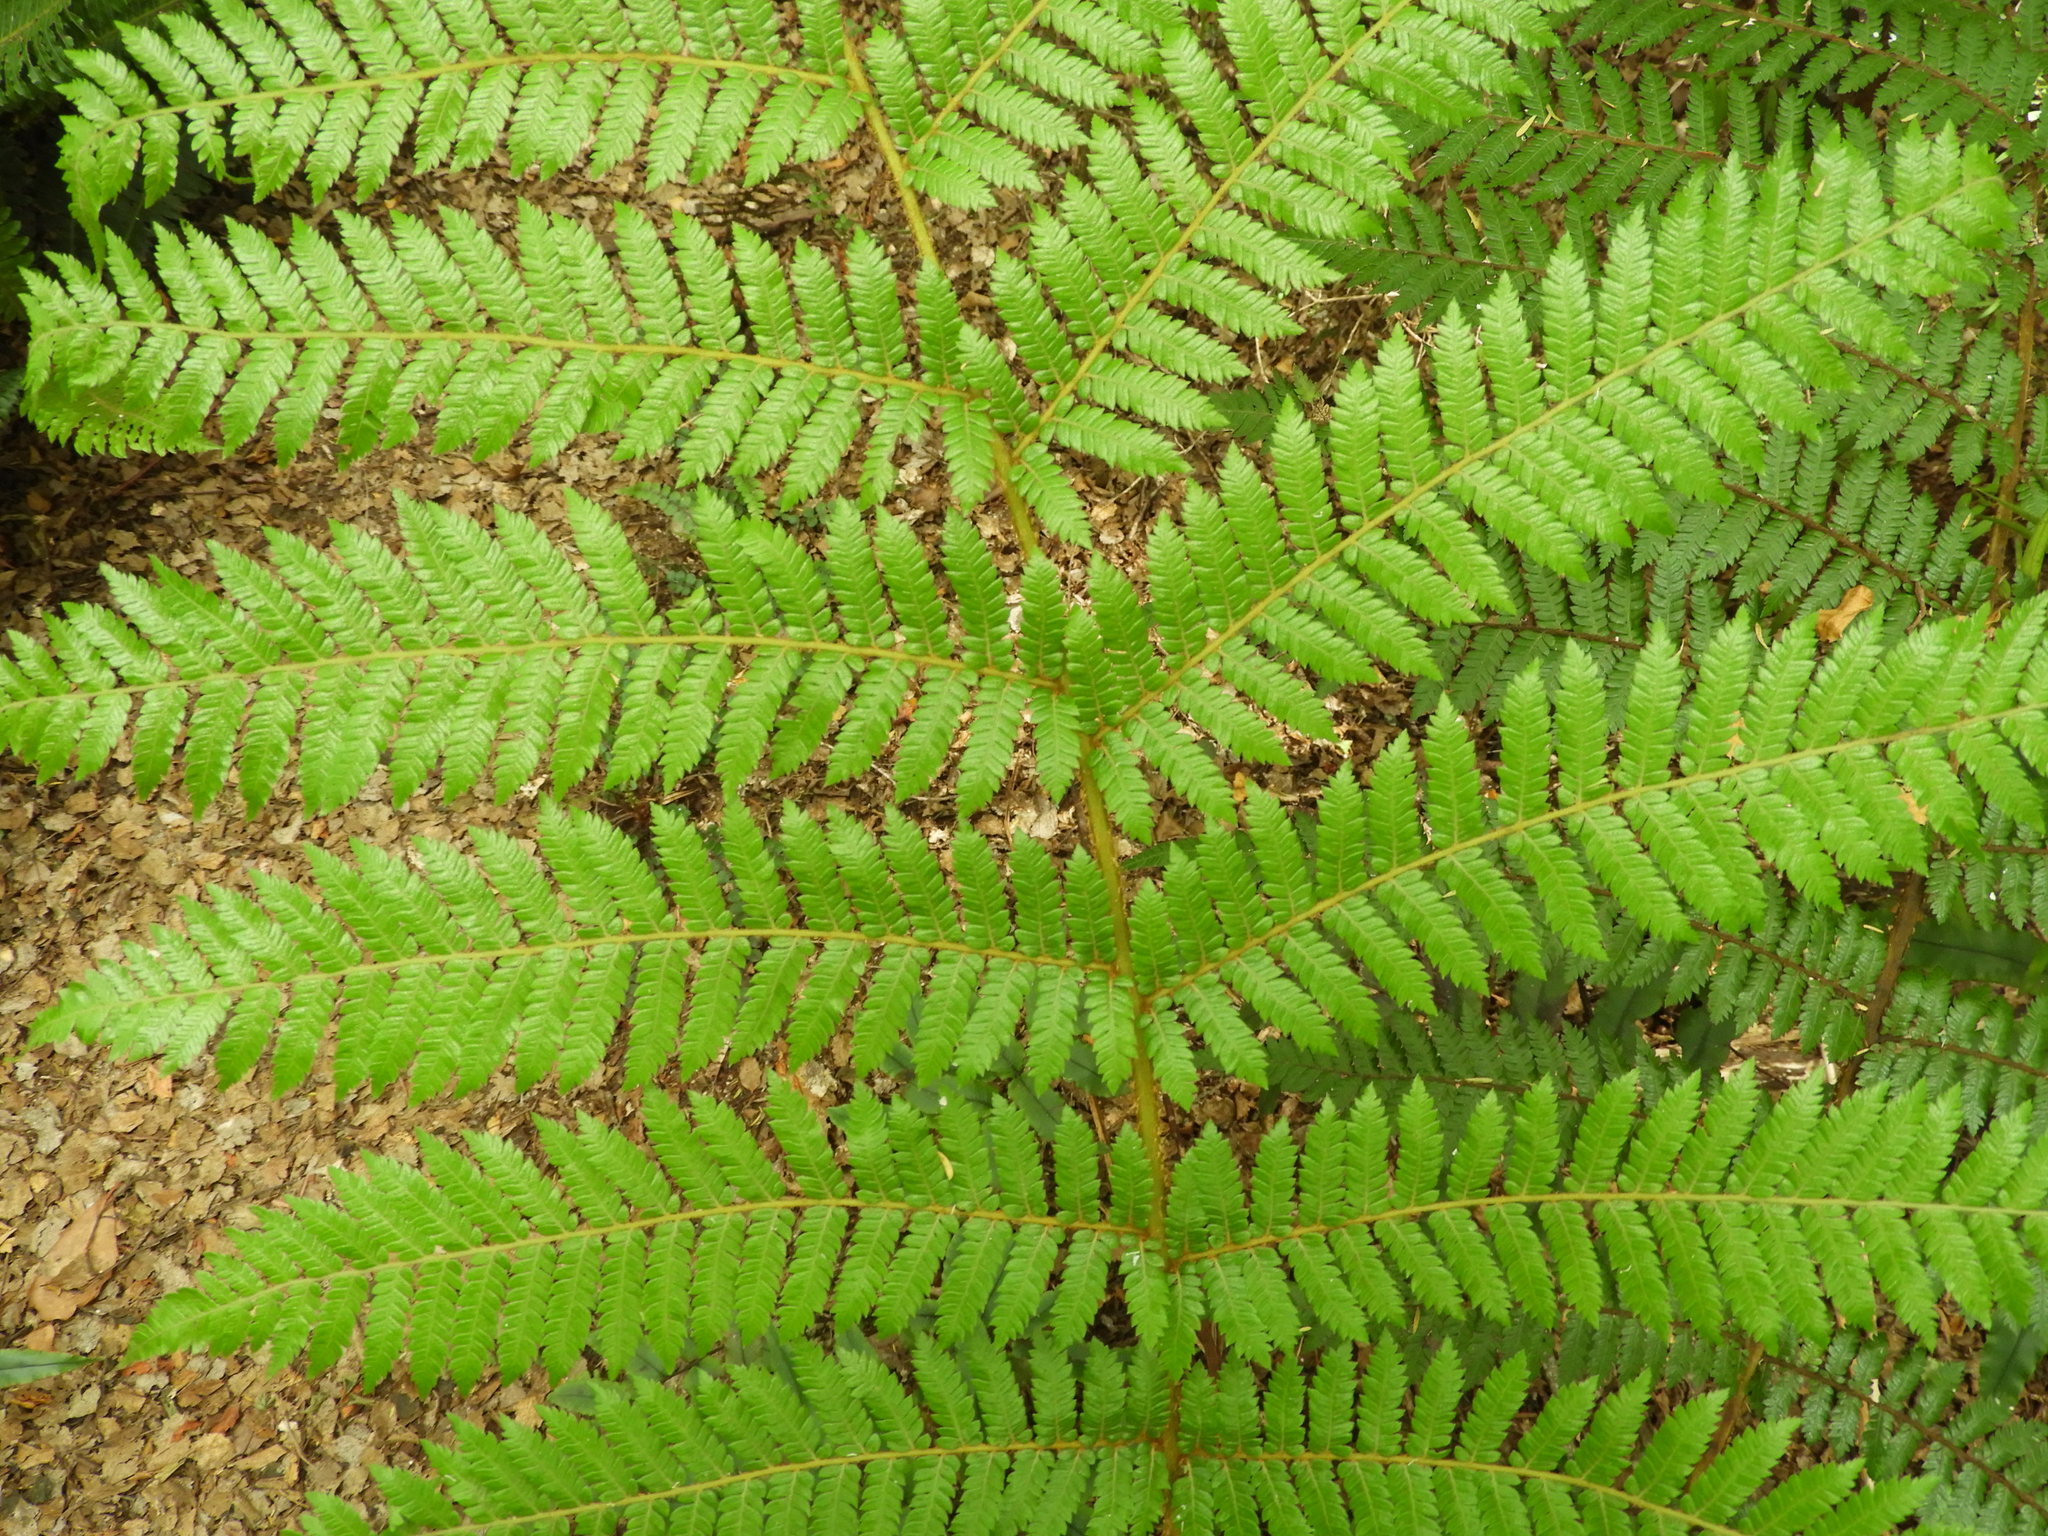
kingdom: Plantae
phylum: Tracheophyta
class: Polypodiopsida
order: Cyatheales
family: Cyatheaceae
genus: Alsophila
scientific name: Alsophila smithii
